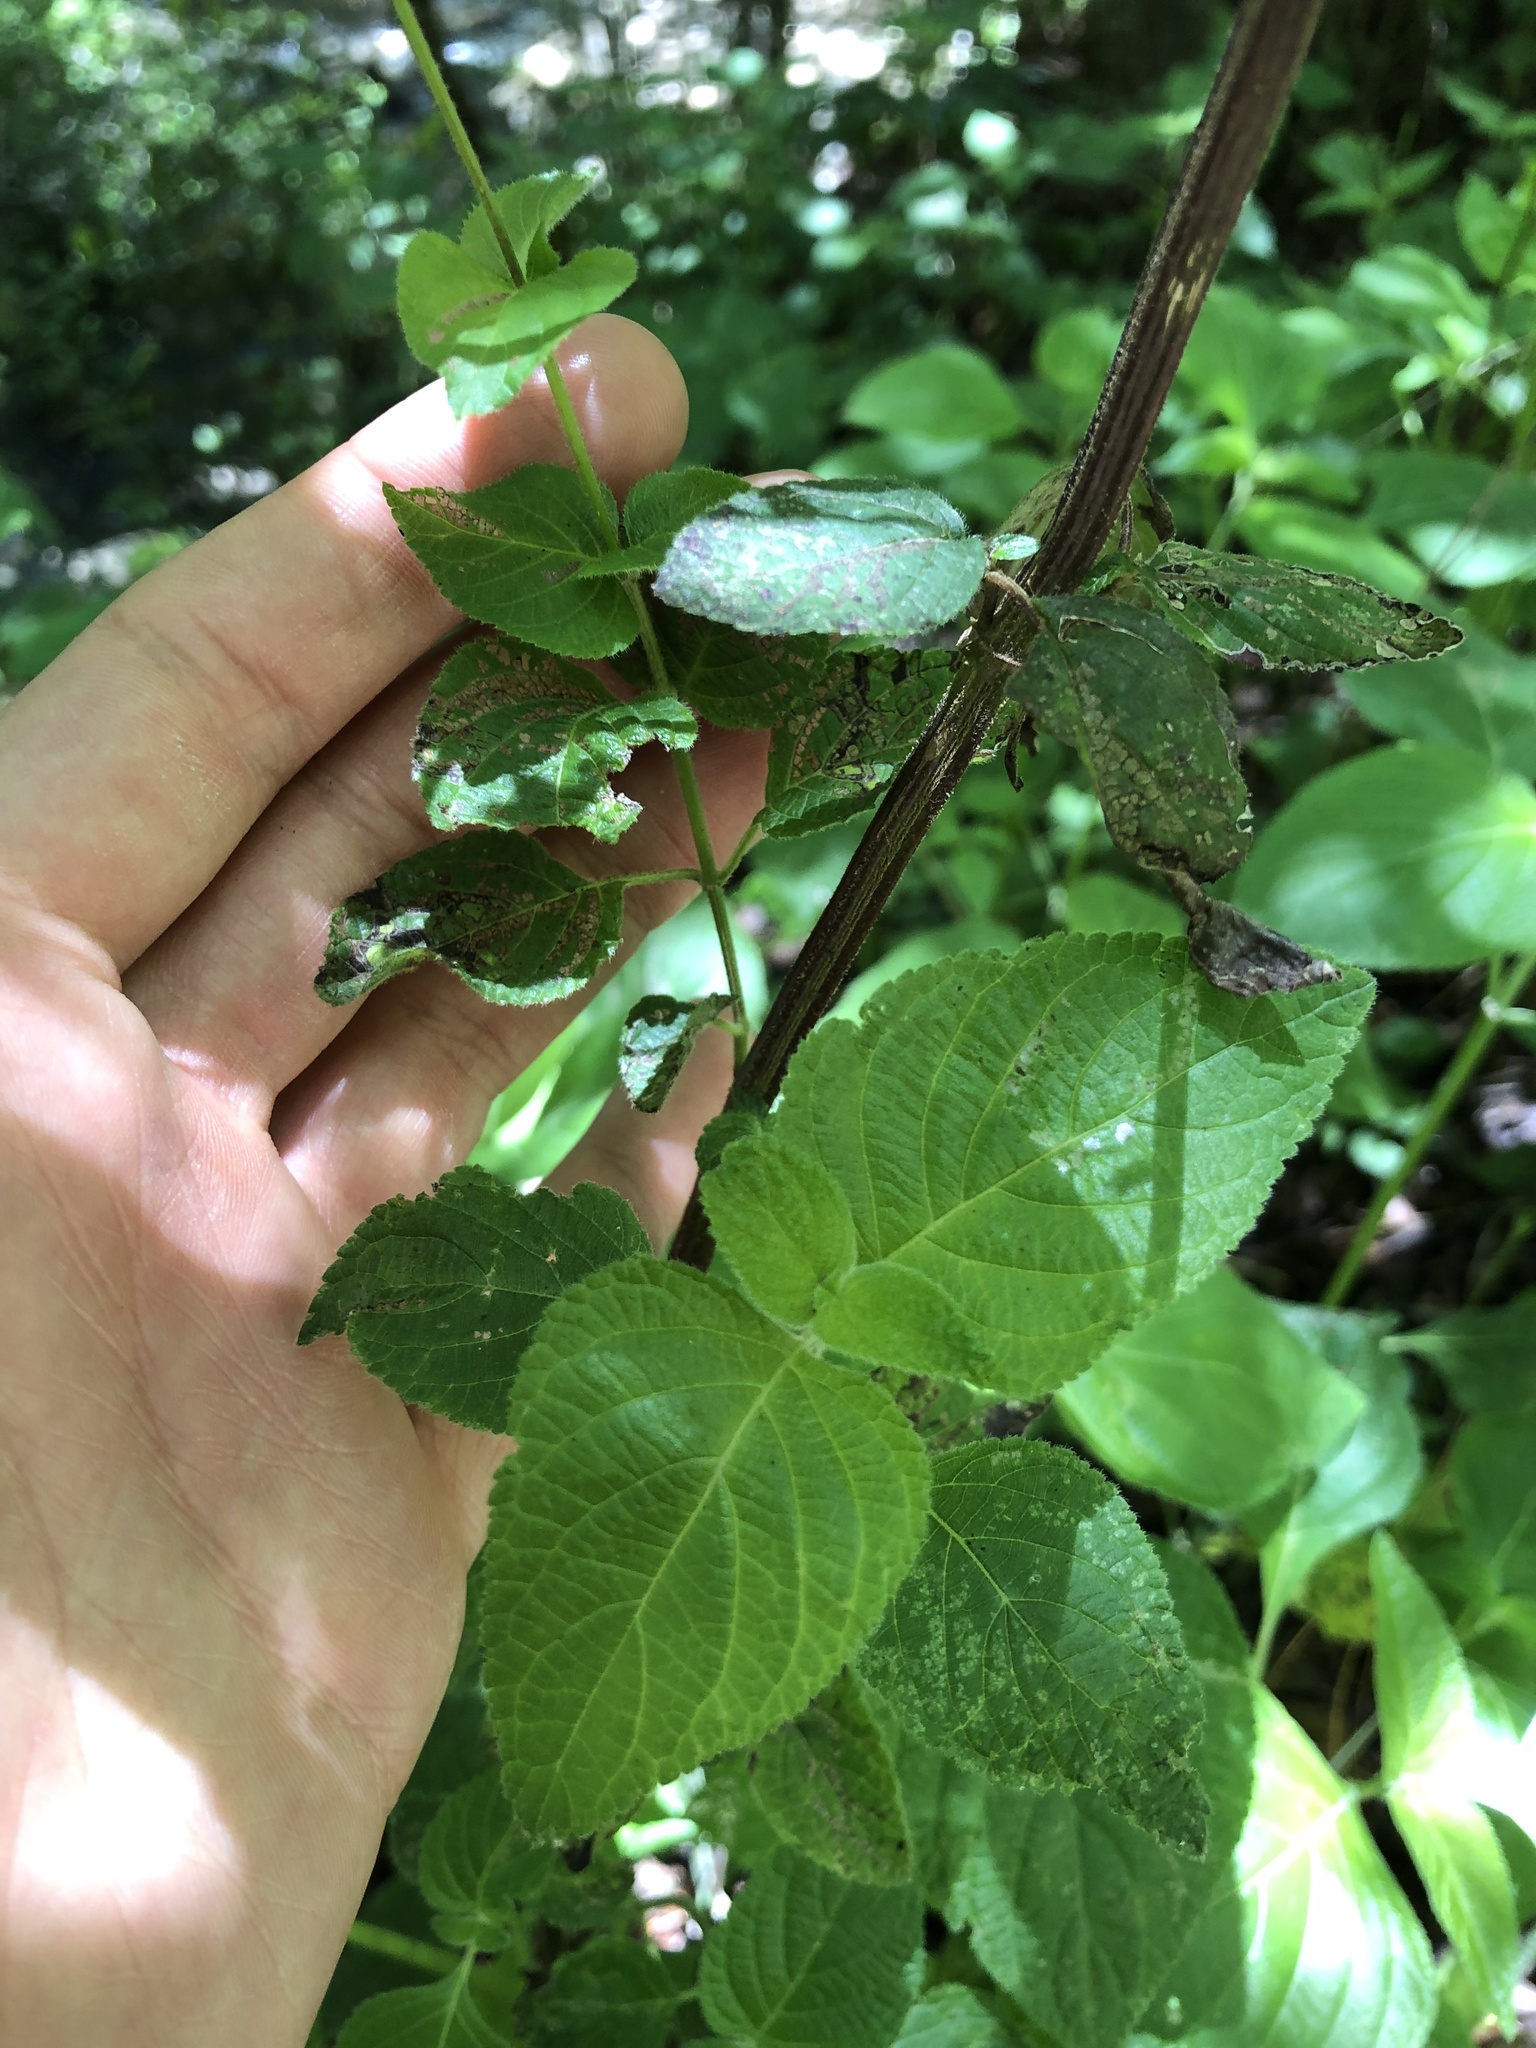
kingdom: Plantae
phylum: Tracheophyta
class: Magnoliopsida
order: Lamiales
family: Lamiaceae
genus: Salvia
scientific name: Salvia tubifera
